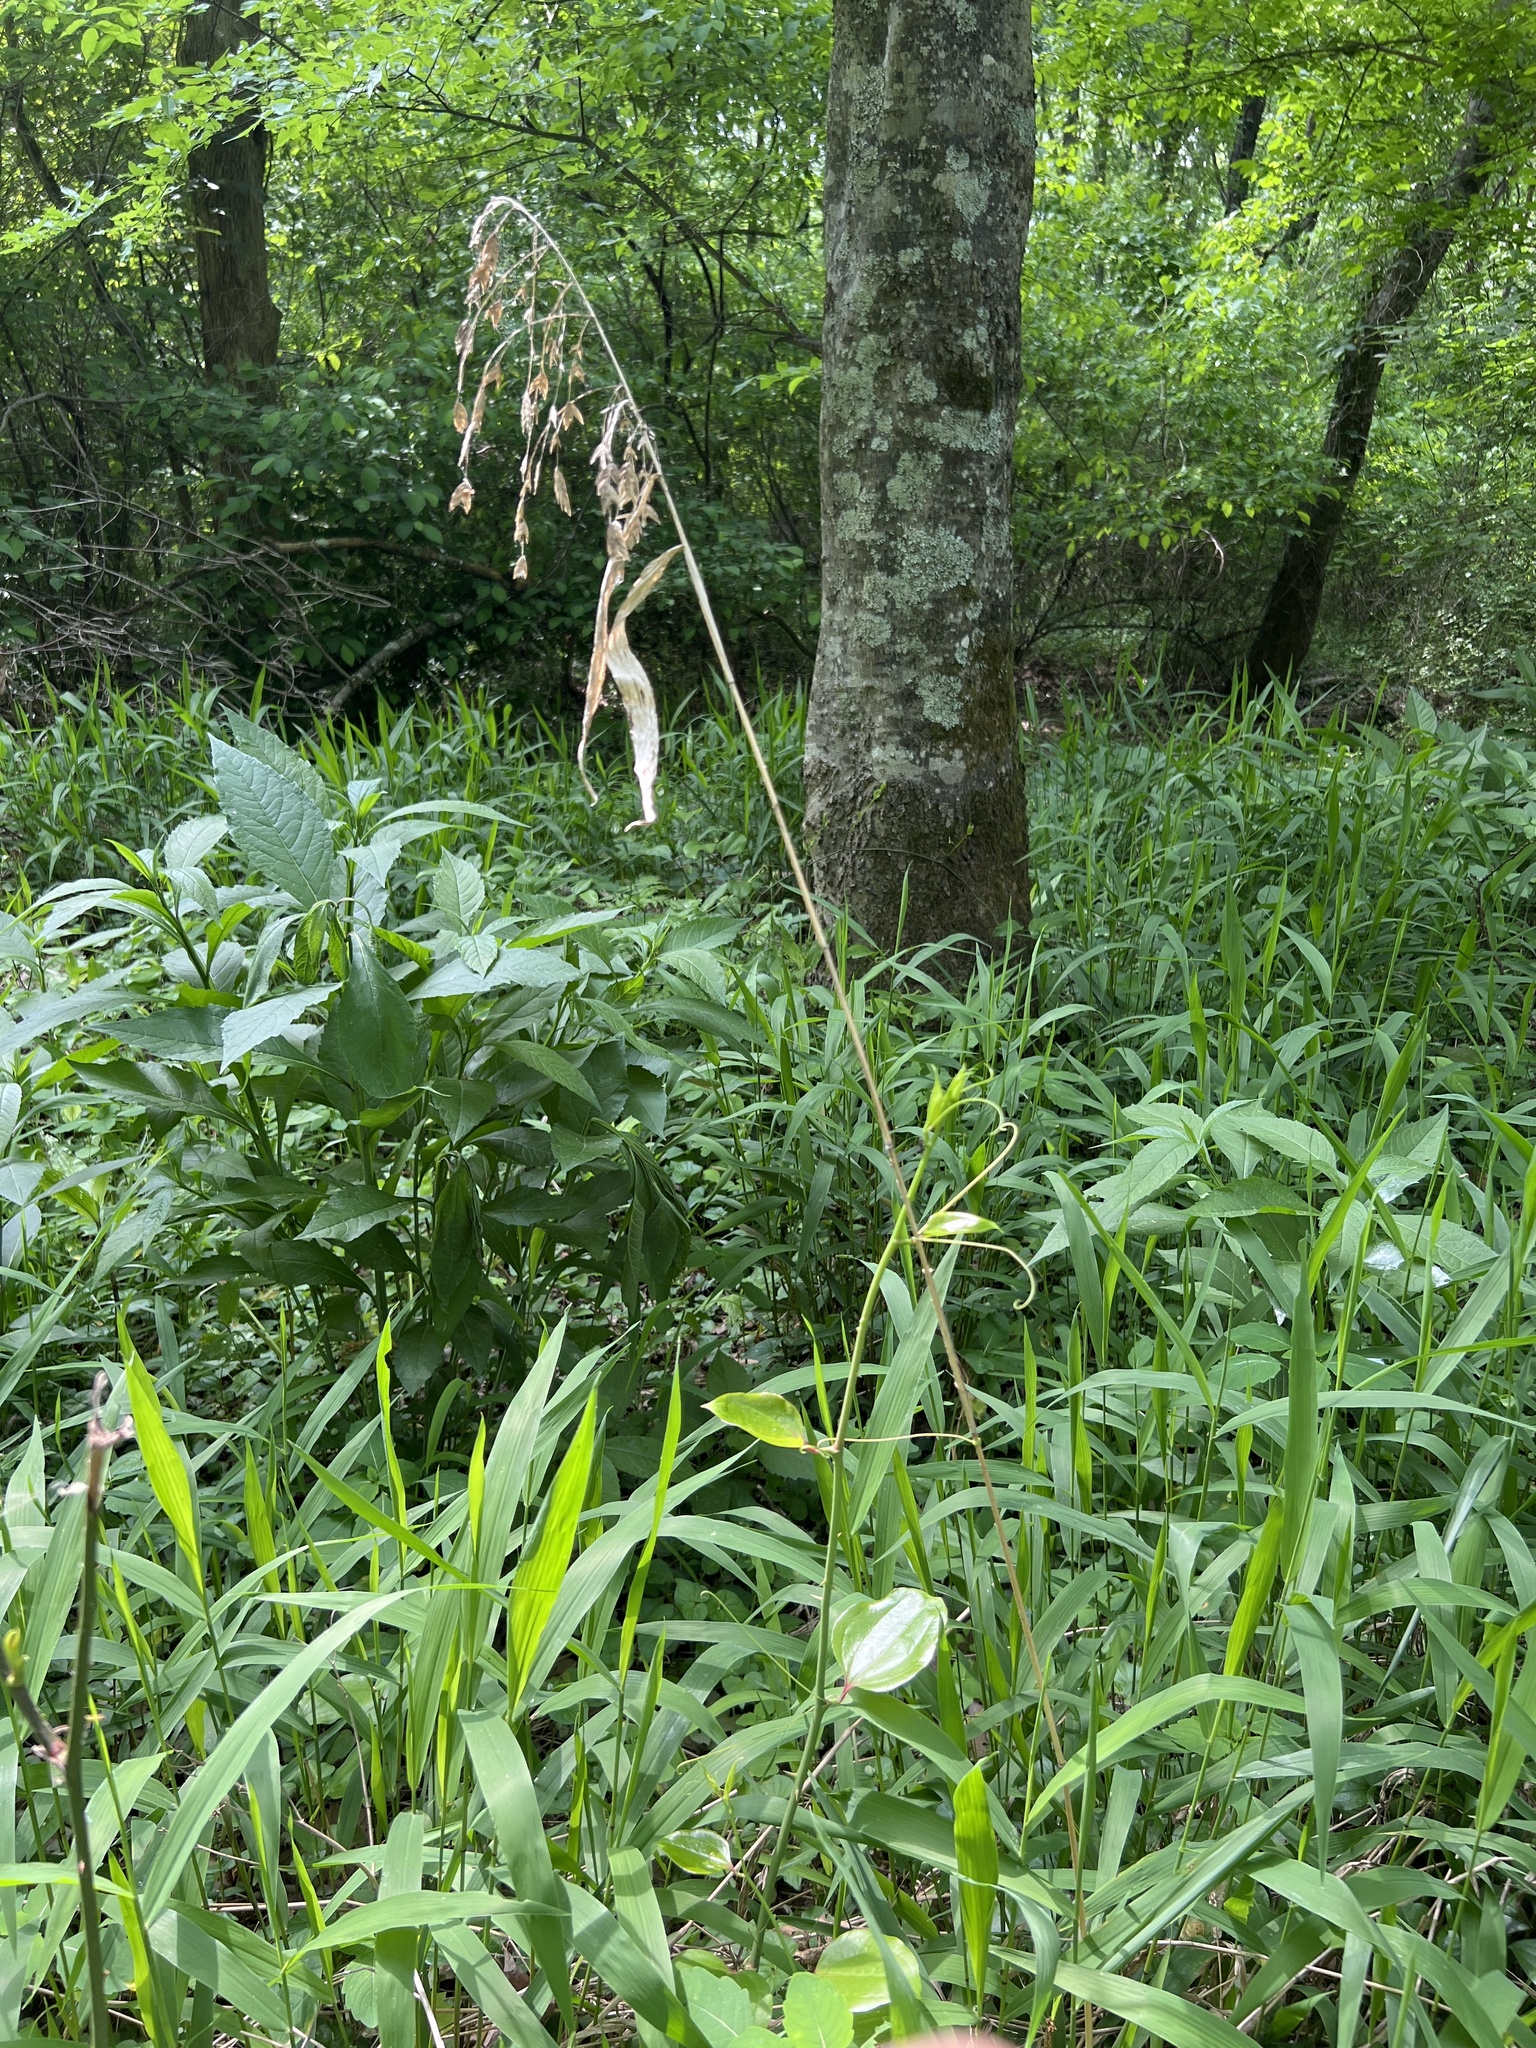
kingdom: Plantae
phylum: Tracheophyta
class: Liliopsida
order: Poales
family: Poaceae
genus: Chasmanthium
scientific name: Chasmanthium latifolium
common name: Broad-leaved chasmanthium
